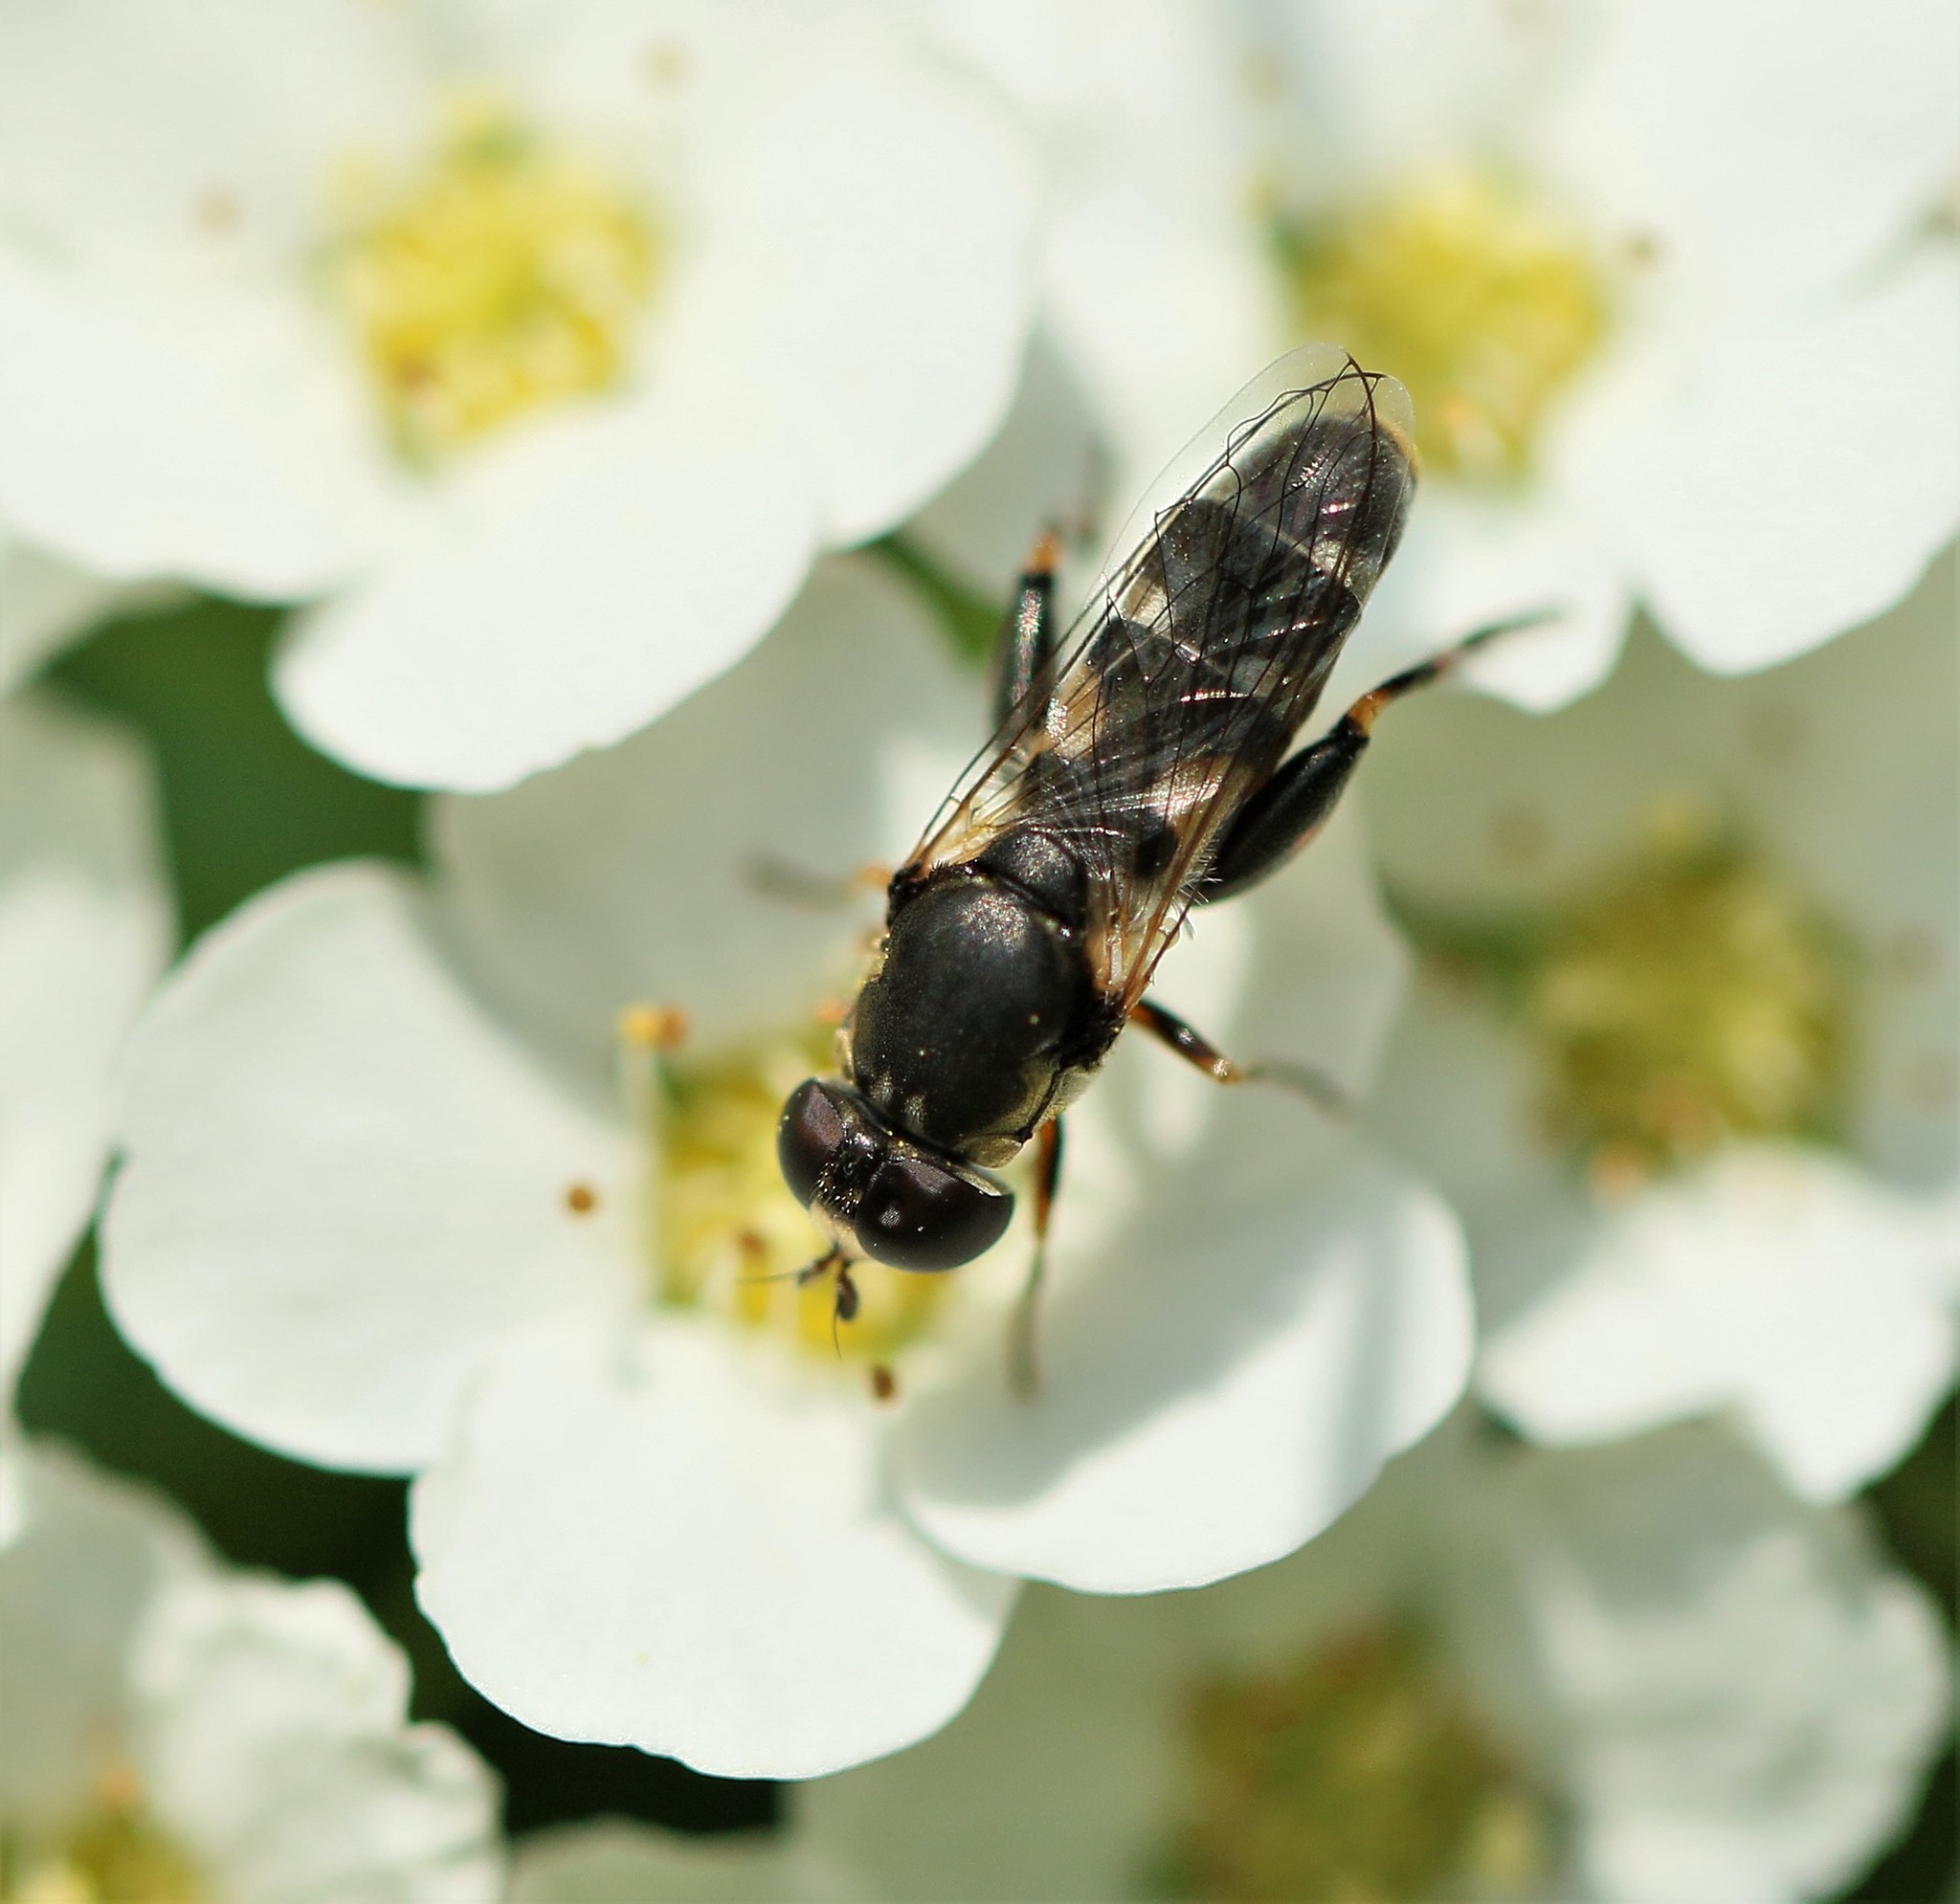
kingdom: Animalia
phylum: Arthropoda
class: Insecta
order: Diptera
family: Syrphidae
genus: Syritta
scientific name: Syritta pipiens
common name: Hover fly
